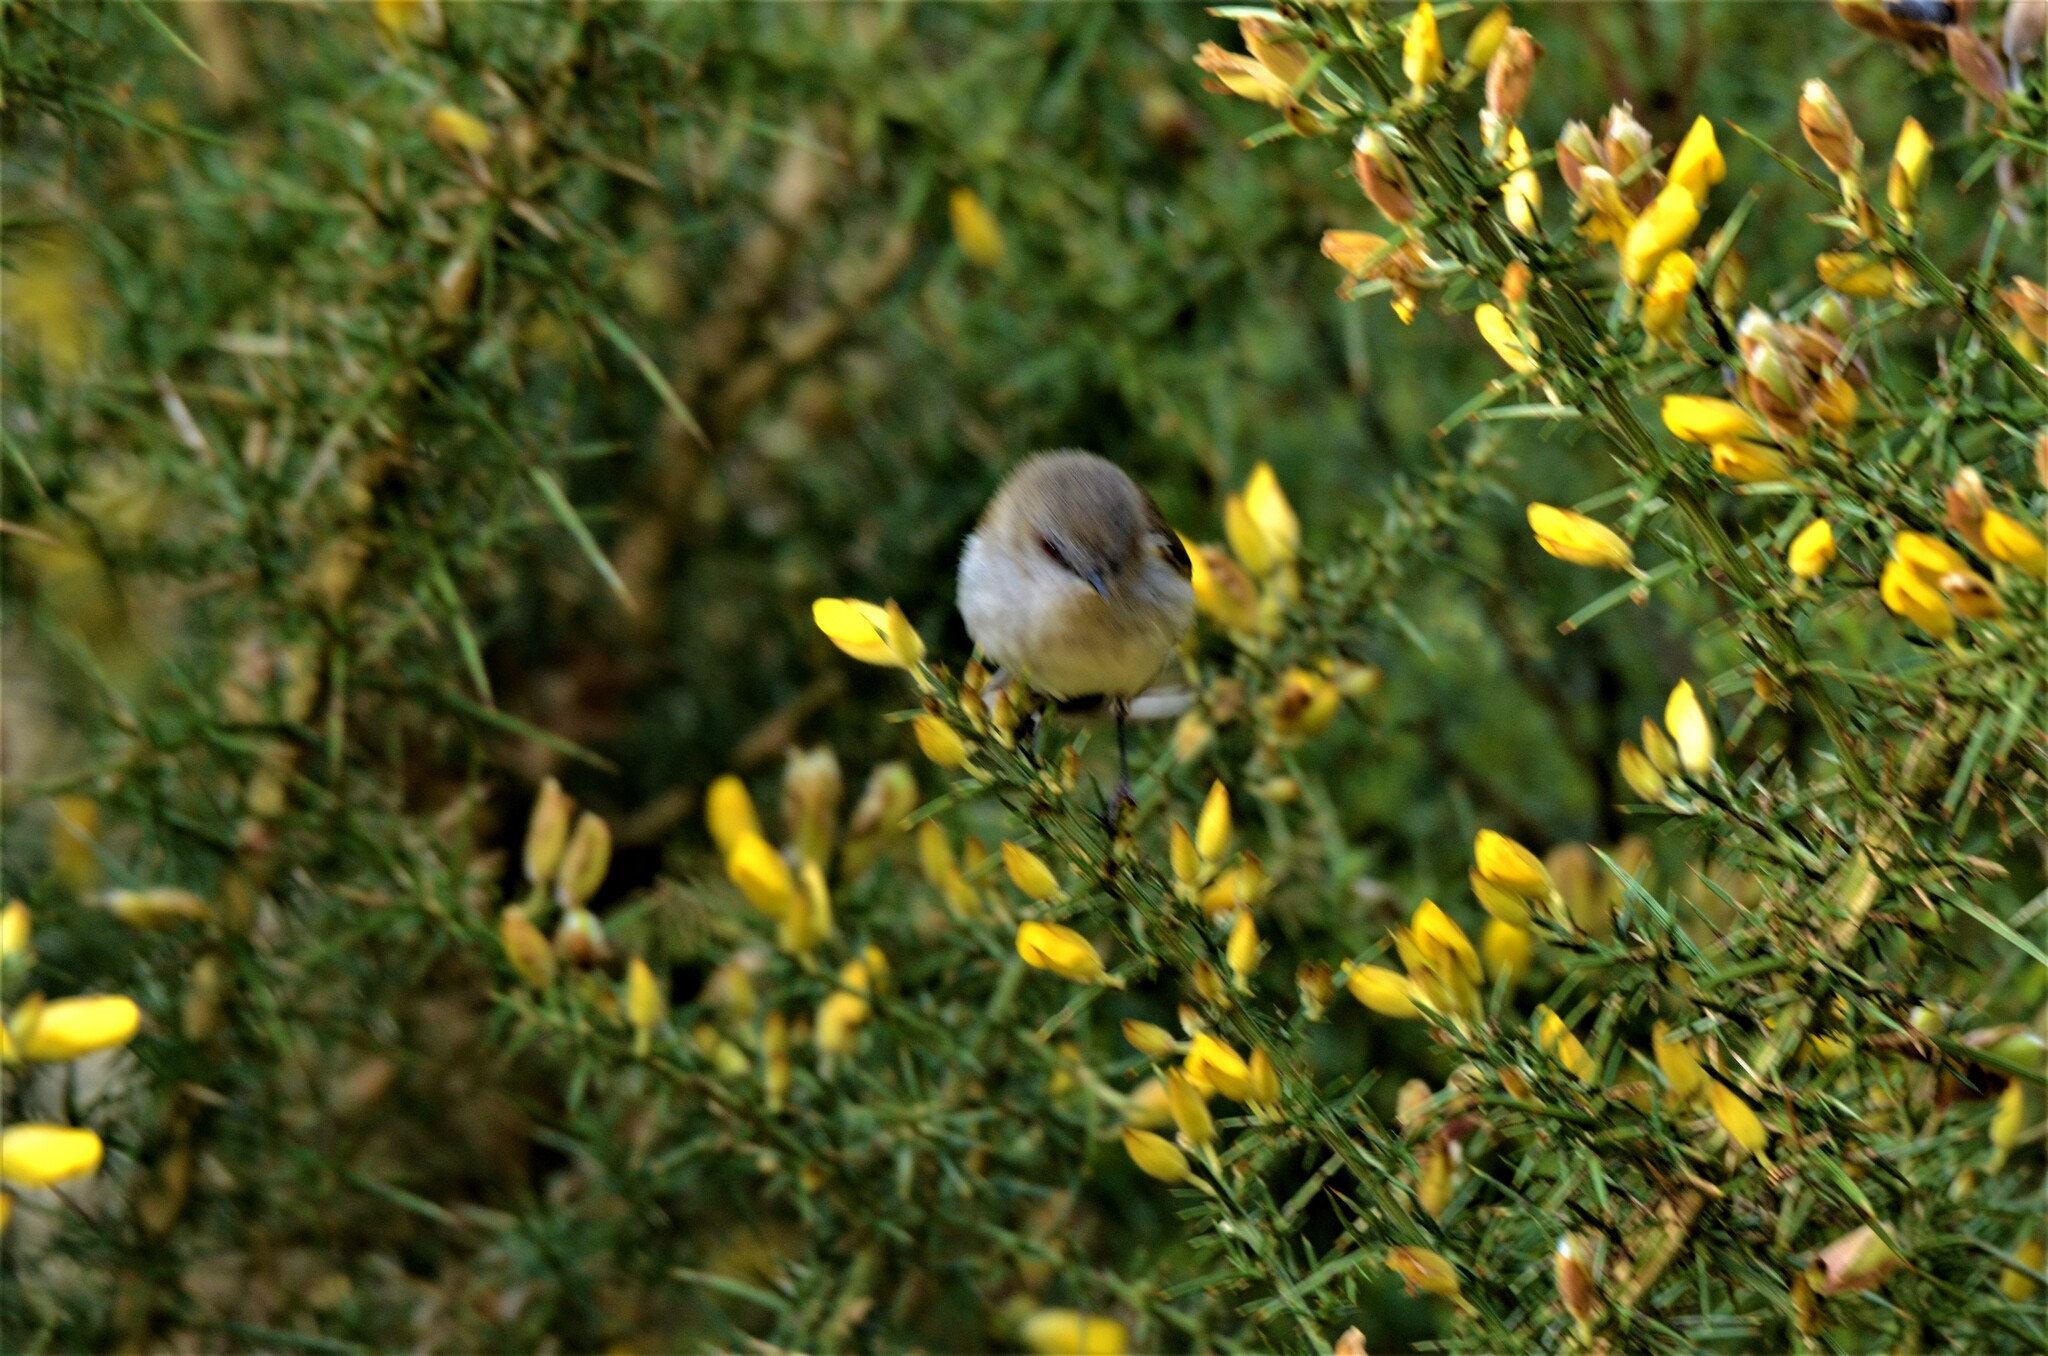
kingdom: Animalia
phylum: Chordata
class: Aves
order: Passeriformes
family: Acanthizidae
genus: Gerygone
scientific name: Gerygone igata
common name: Grey gerygone
